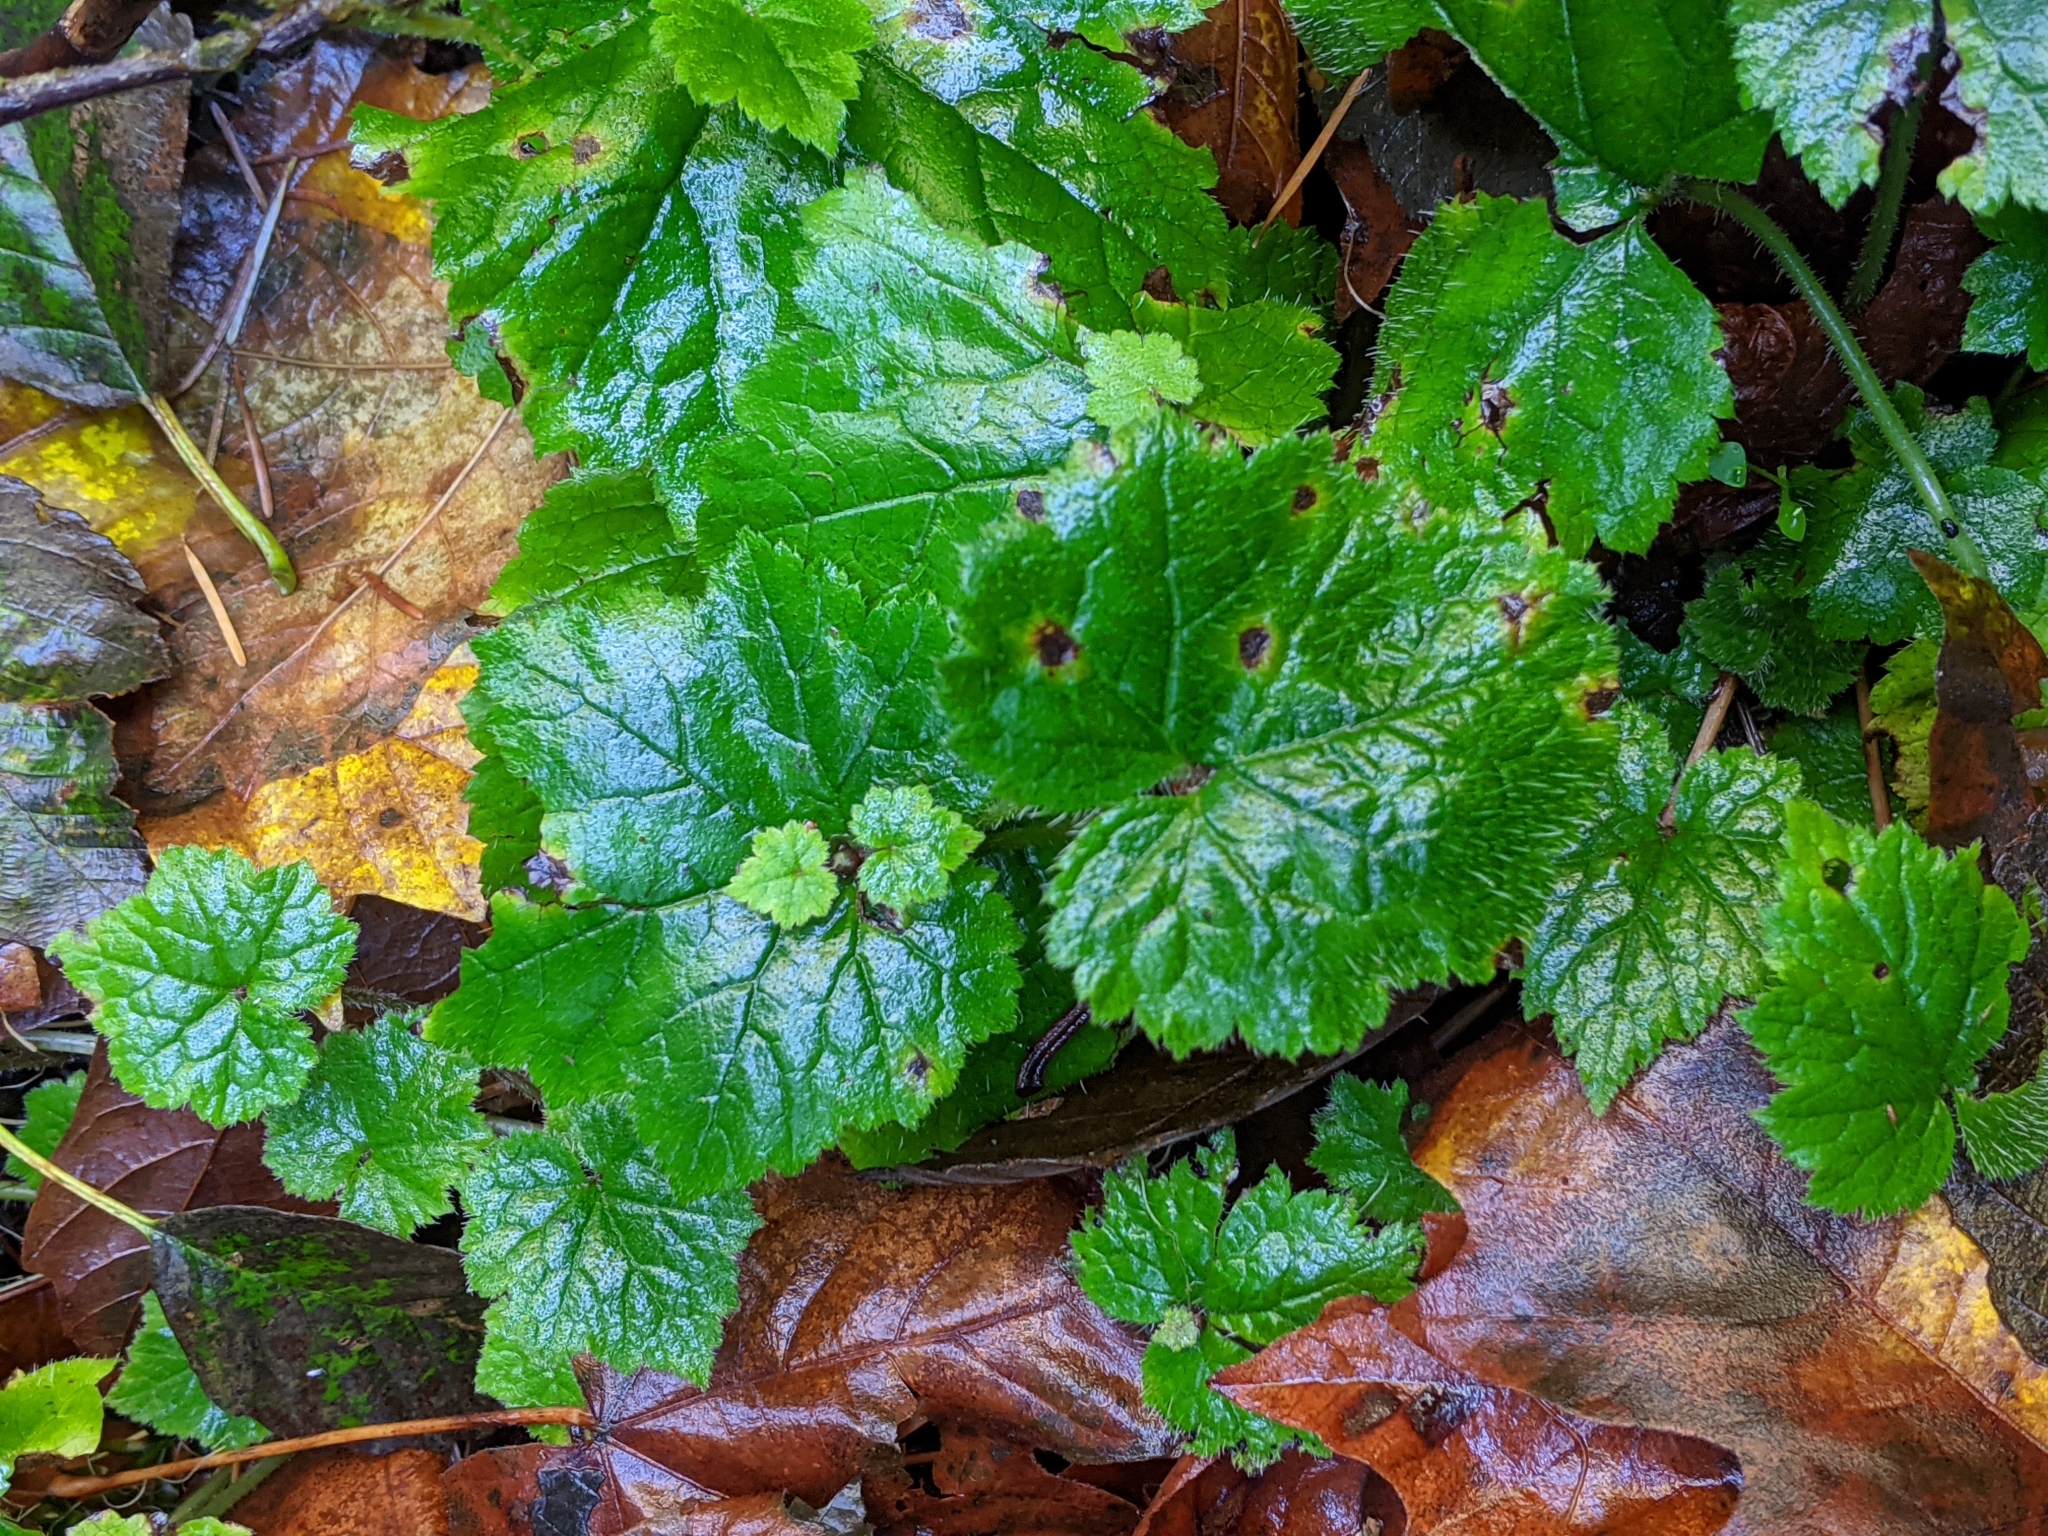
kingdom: Plantae
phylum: Tracheophyta
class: Magnoliopsida
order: Saxifragales
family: Saxifragaceae
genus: Tolmiea
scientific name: Tolmiea menziesii
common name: Pick-a-back-plant
